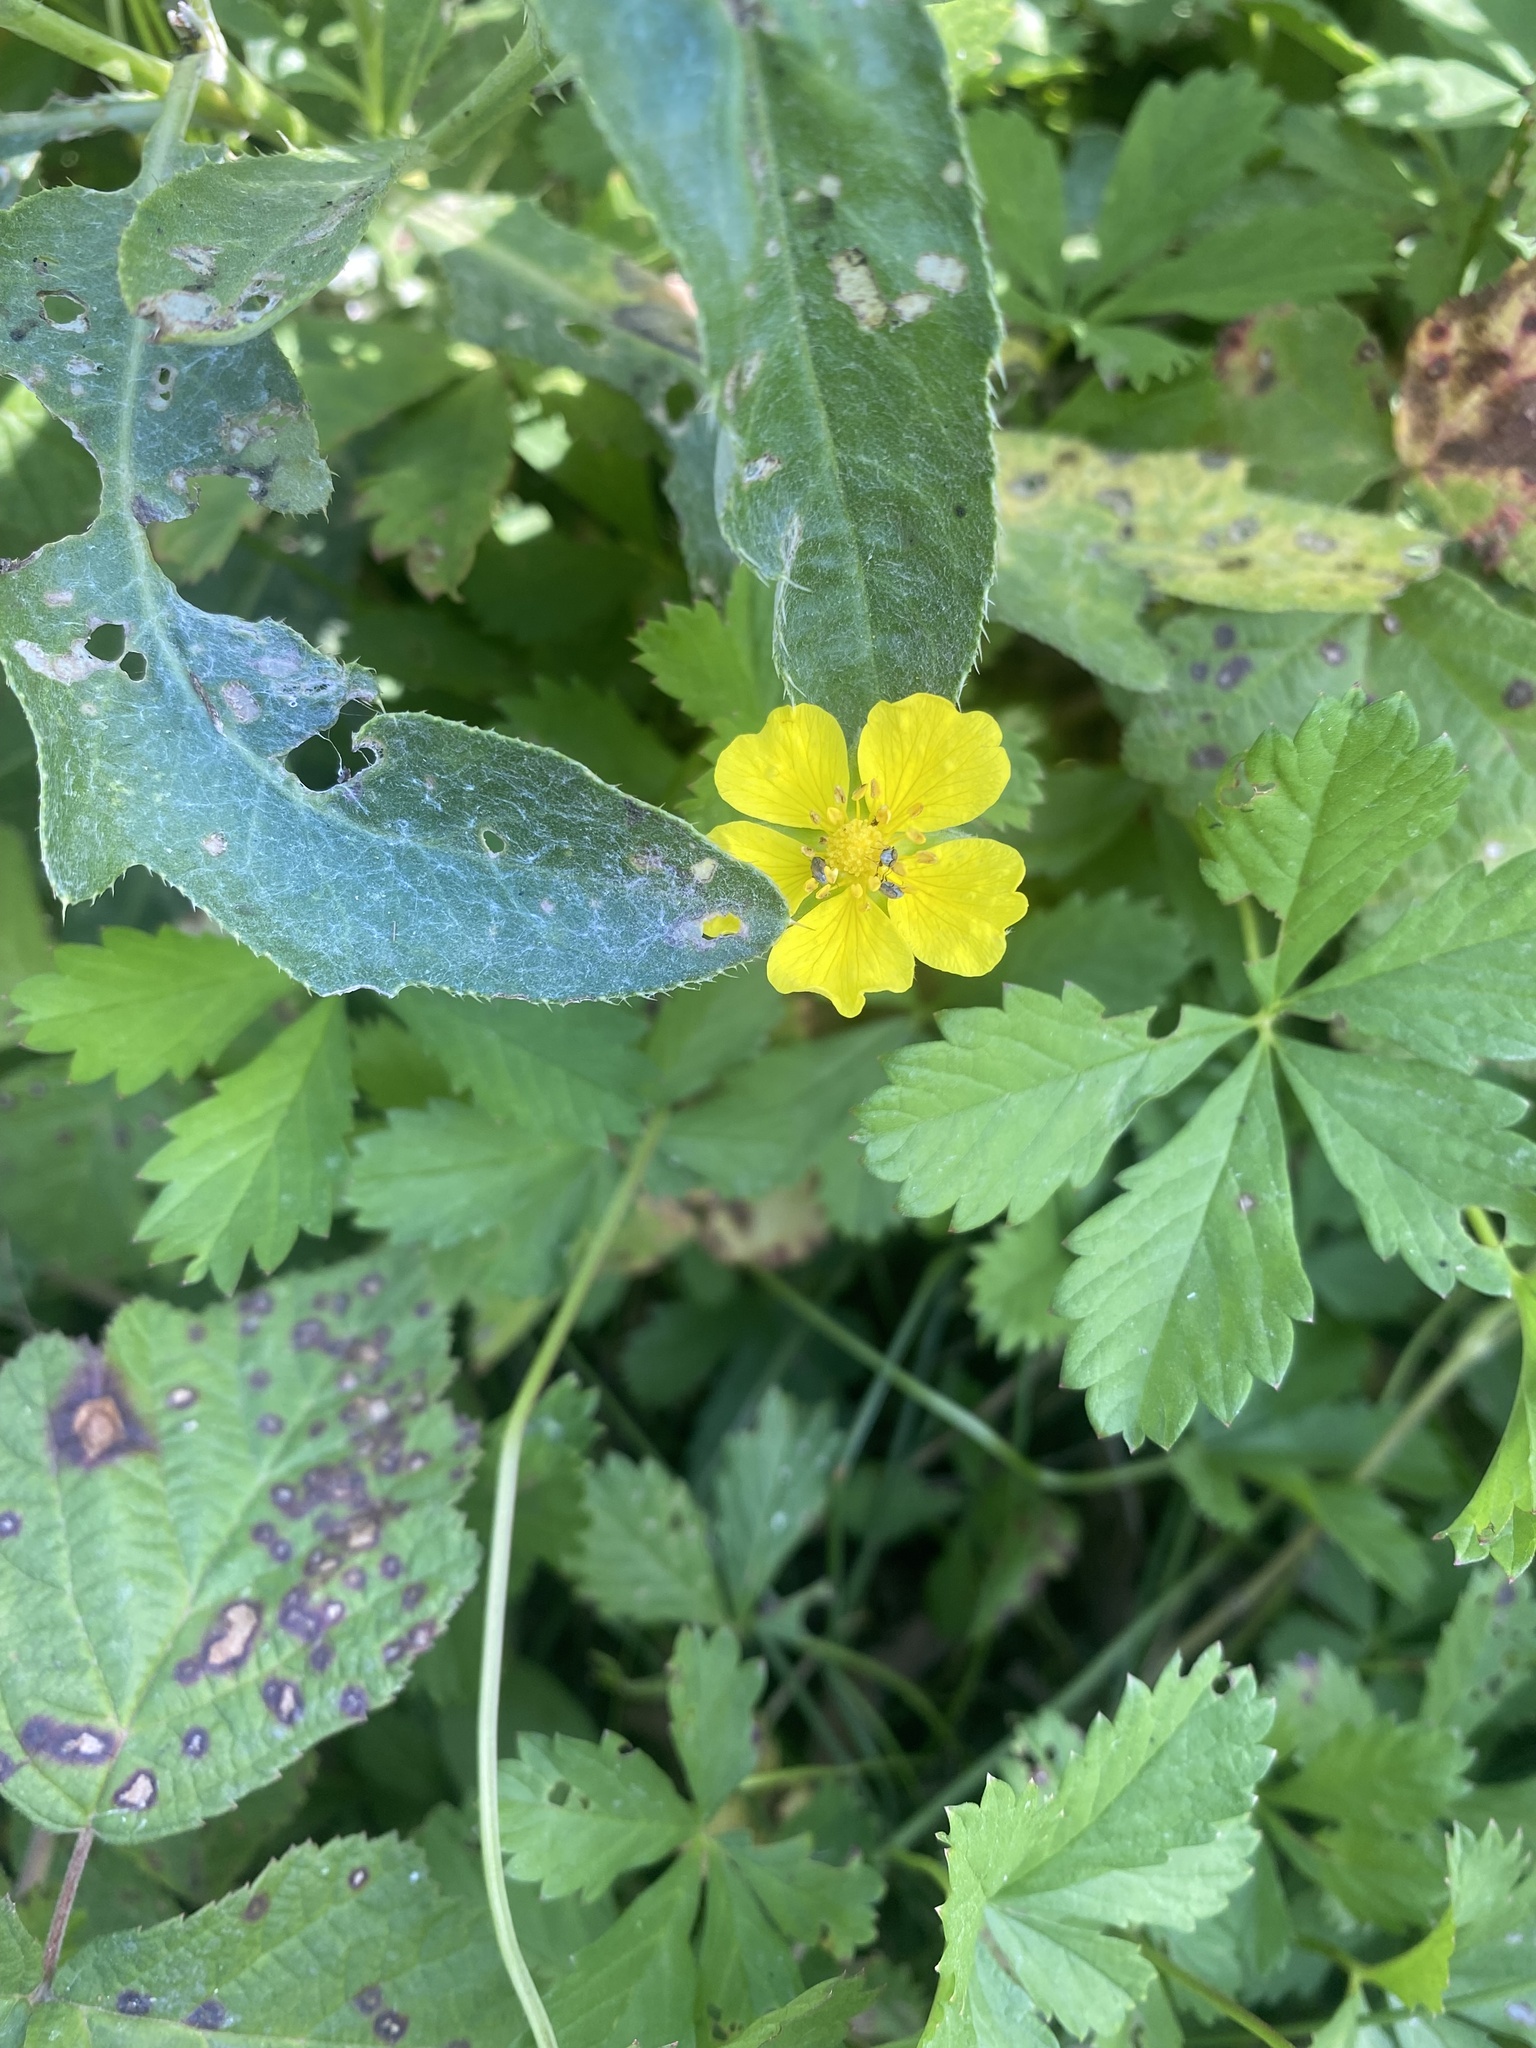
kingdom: Plantae
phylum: Tracheophyta
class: Magnoliopsida
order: Rosales
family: Rosaceae
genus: Potentilla
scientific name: Potentilla reptans
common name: Creeping cinquefoil
